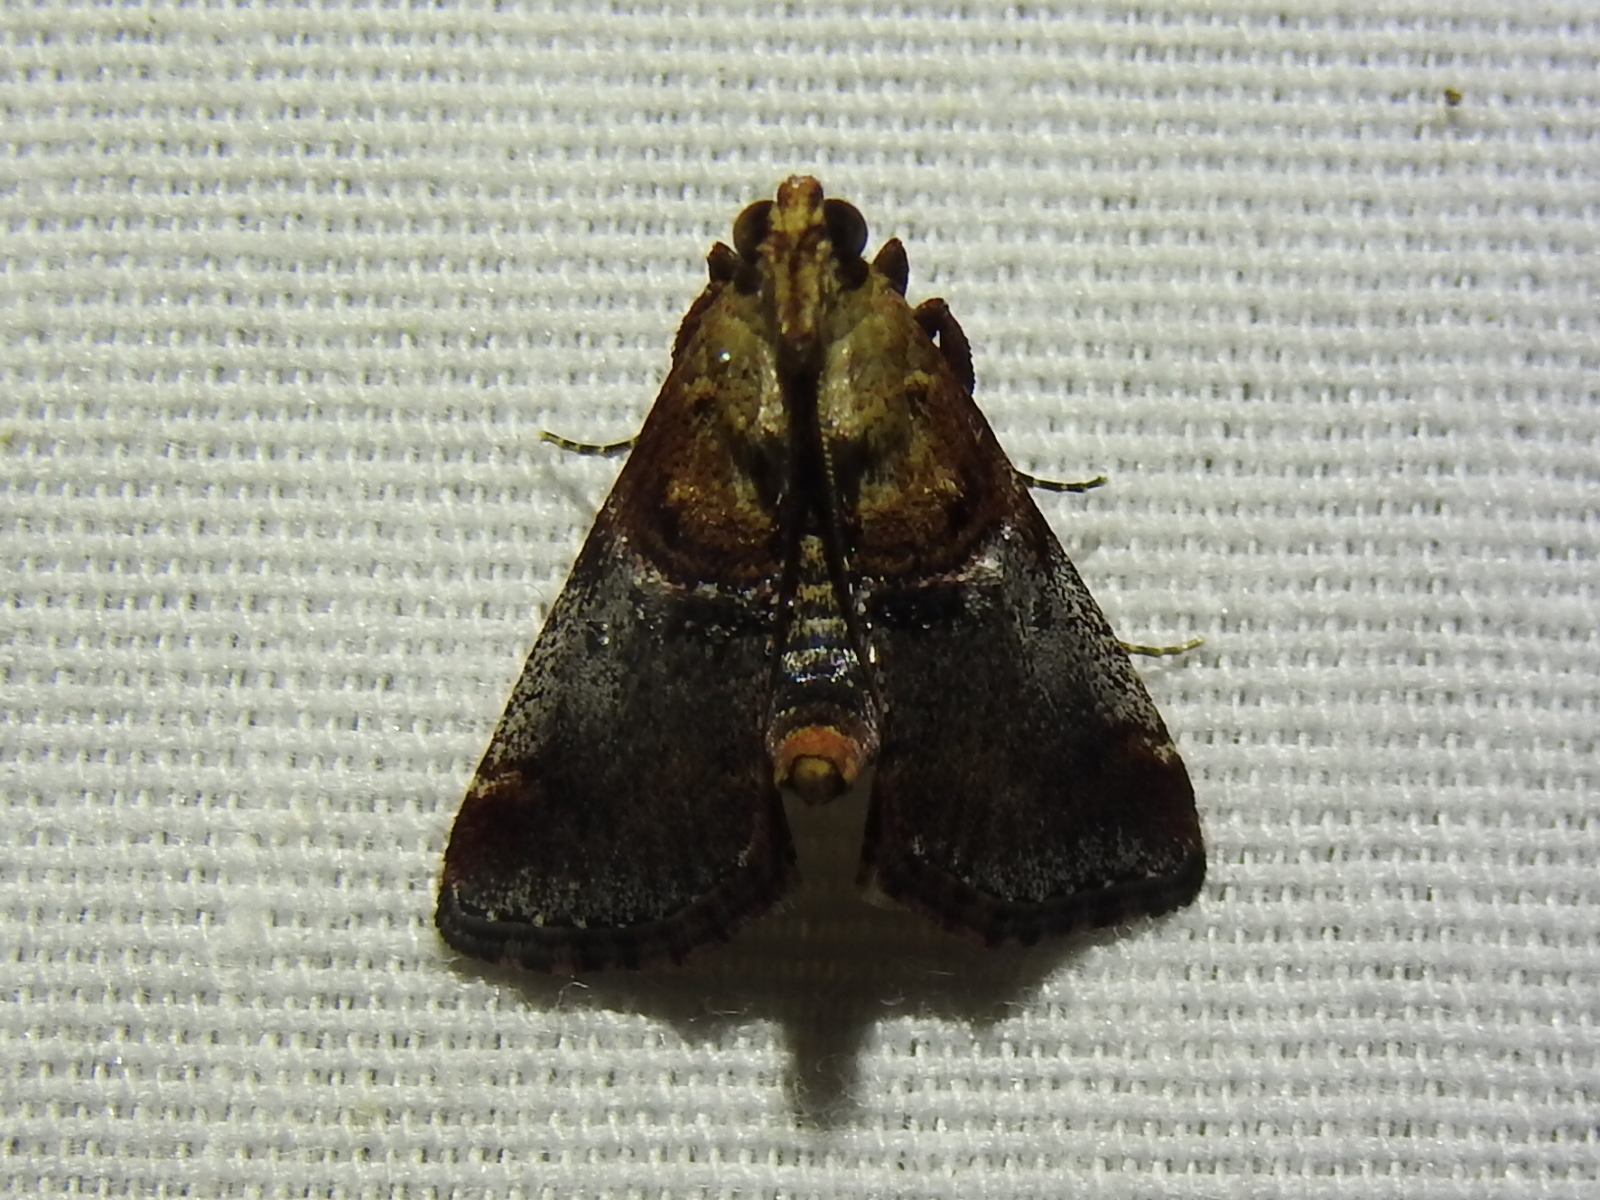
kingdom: Animalia
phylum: Arthropoda
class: Insecta
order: Lepidoptera
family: Pyralidae
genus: Cacozelia
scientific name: Cacozelia basiochrealis
